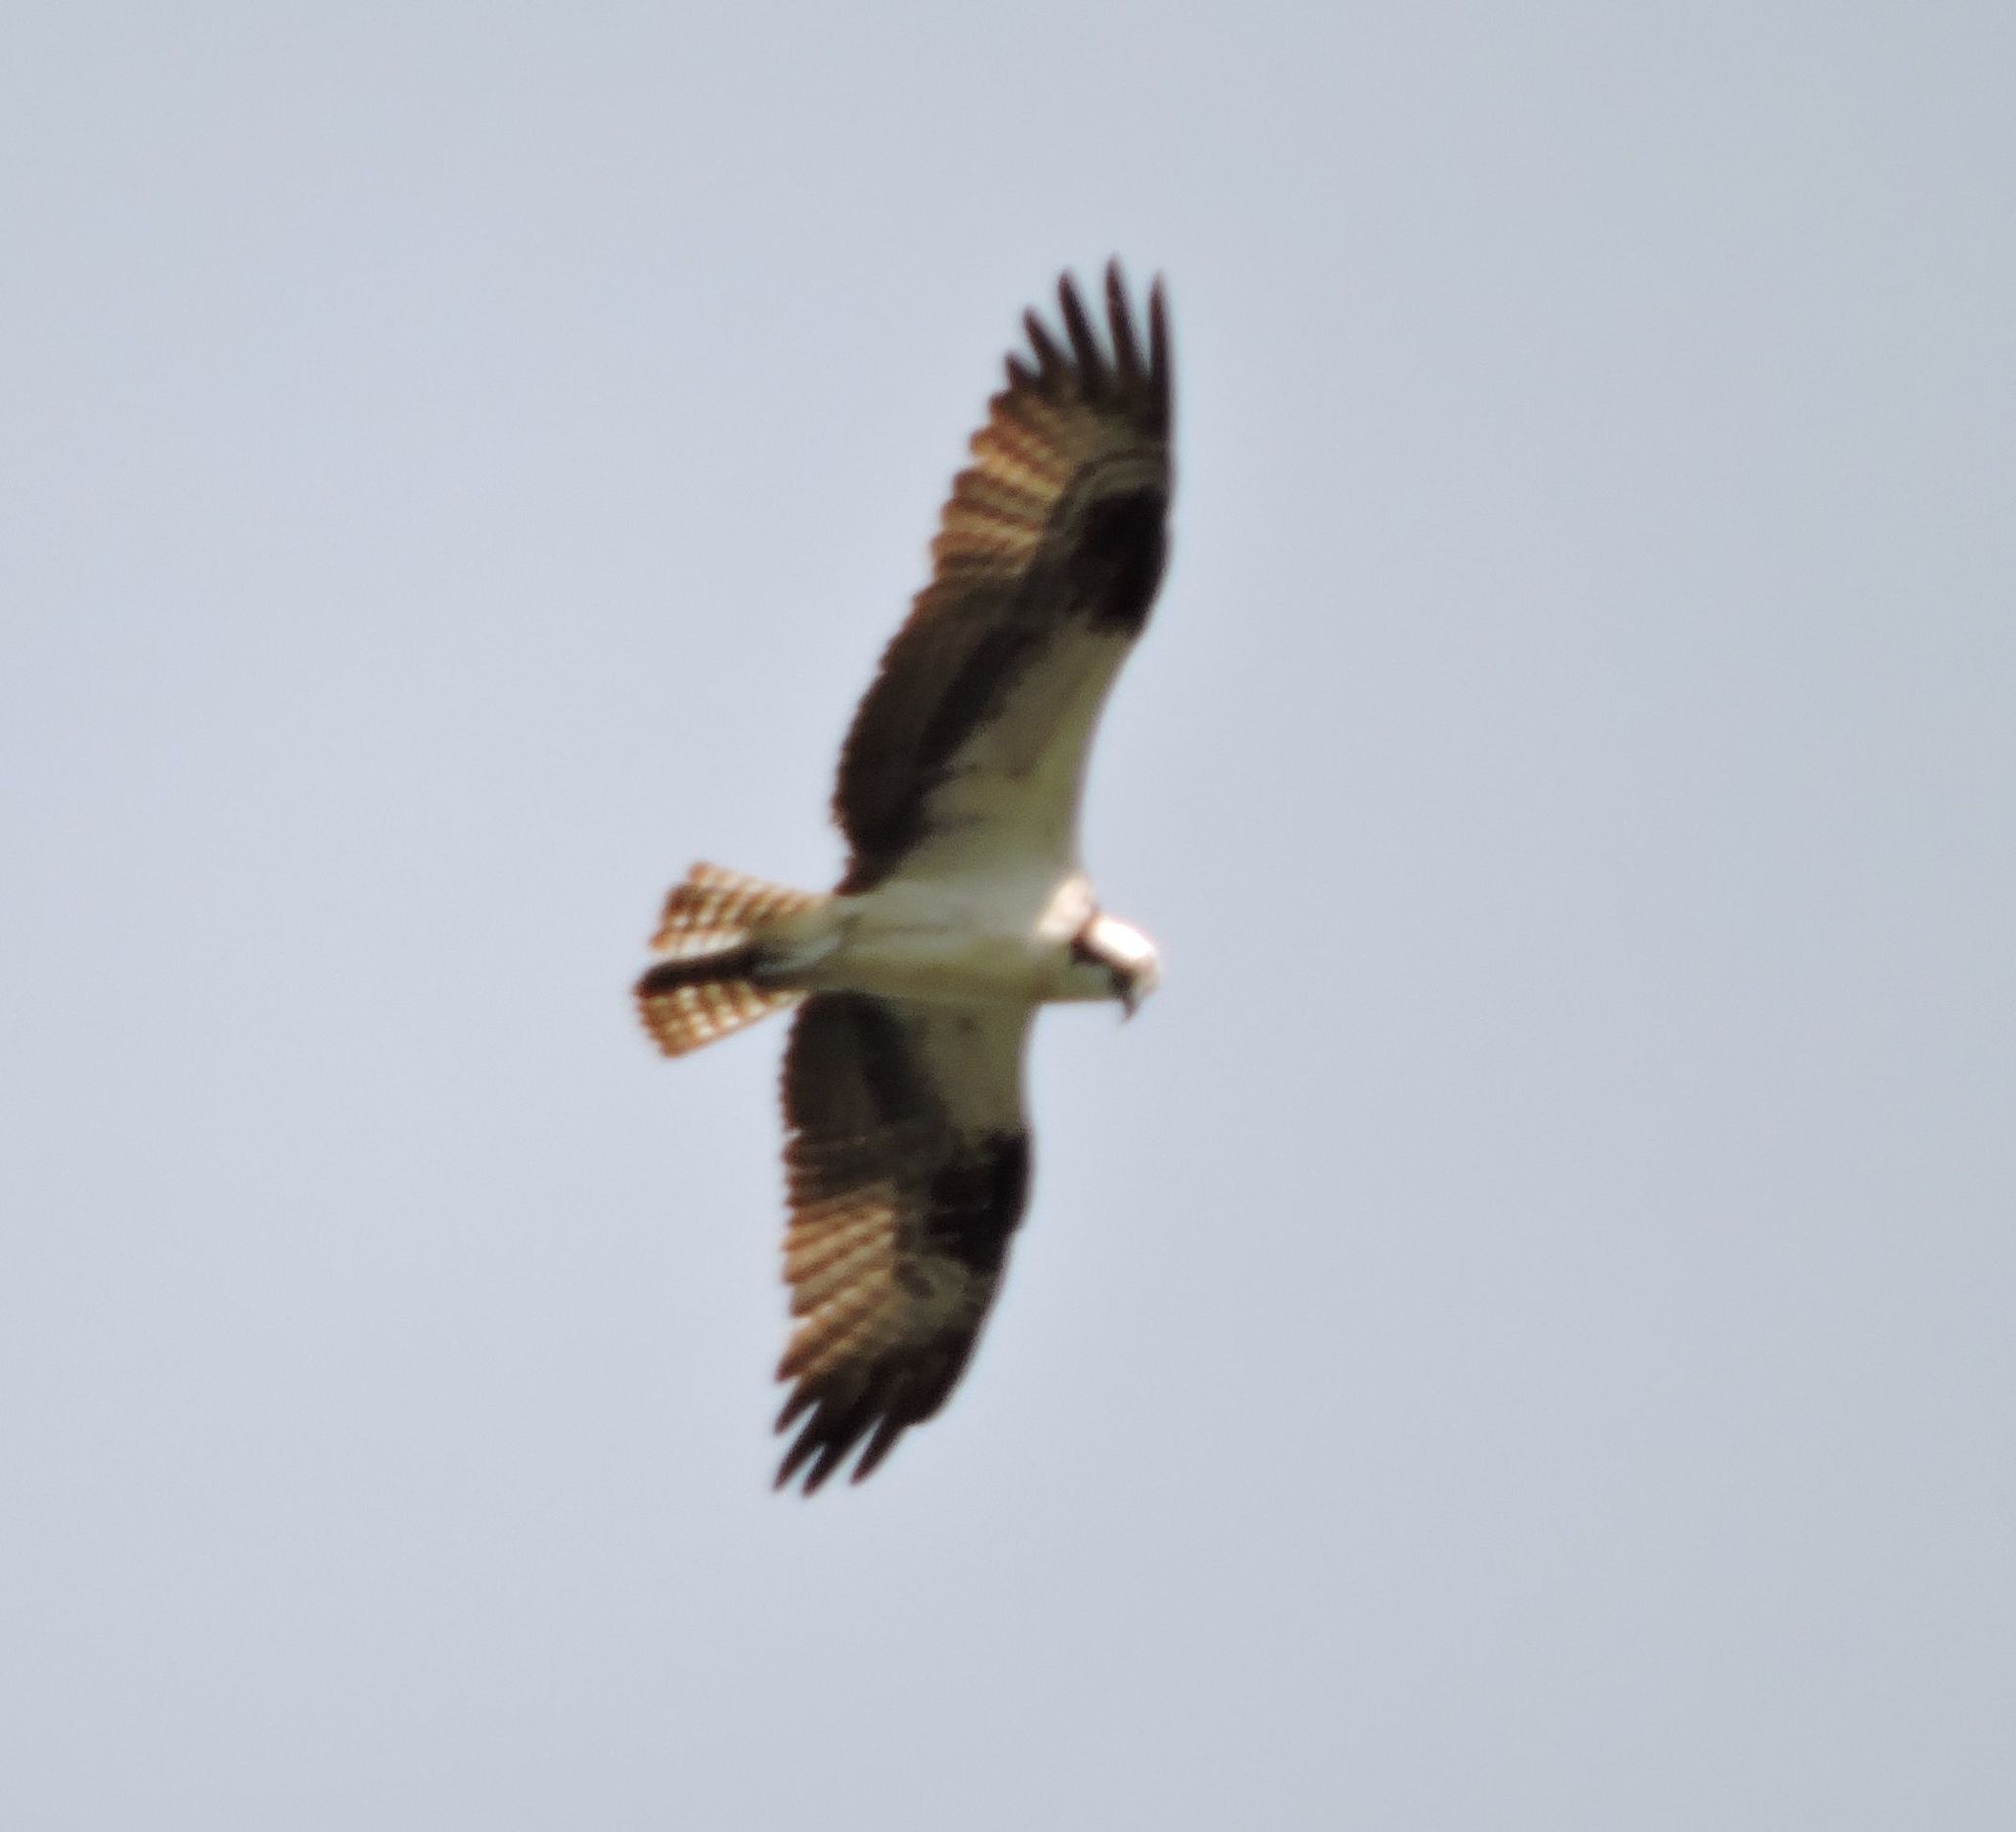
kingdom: Animalia
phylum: Chordata
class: Aves
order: Accipitriformes
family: Pandionidae
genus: Pandion
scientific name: Pandion haliaetus
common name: Osprey
